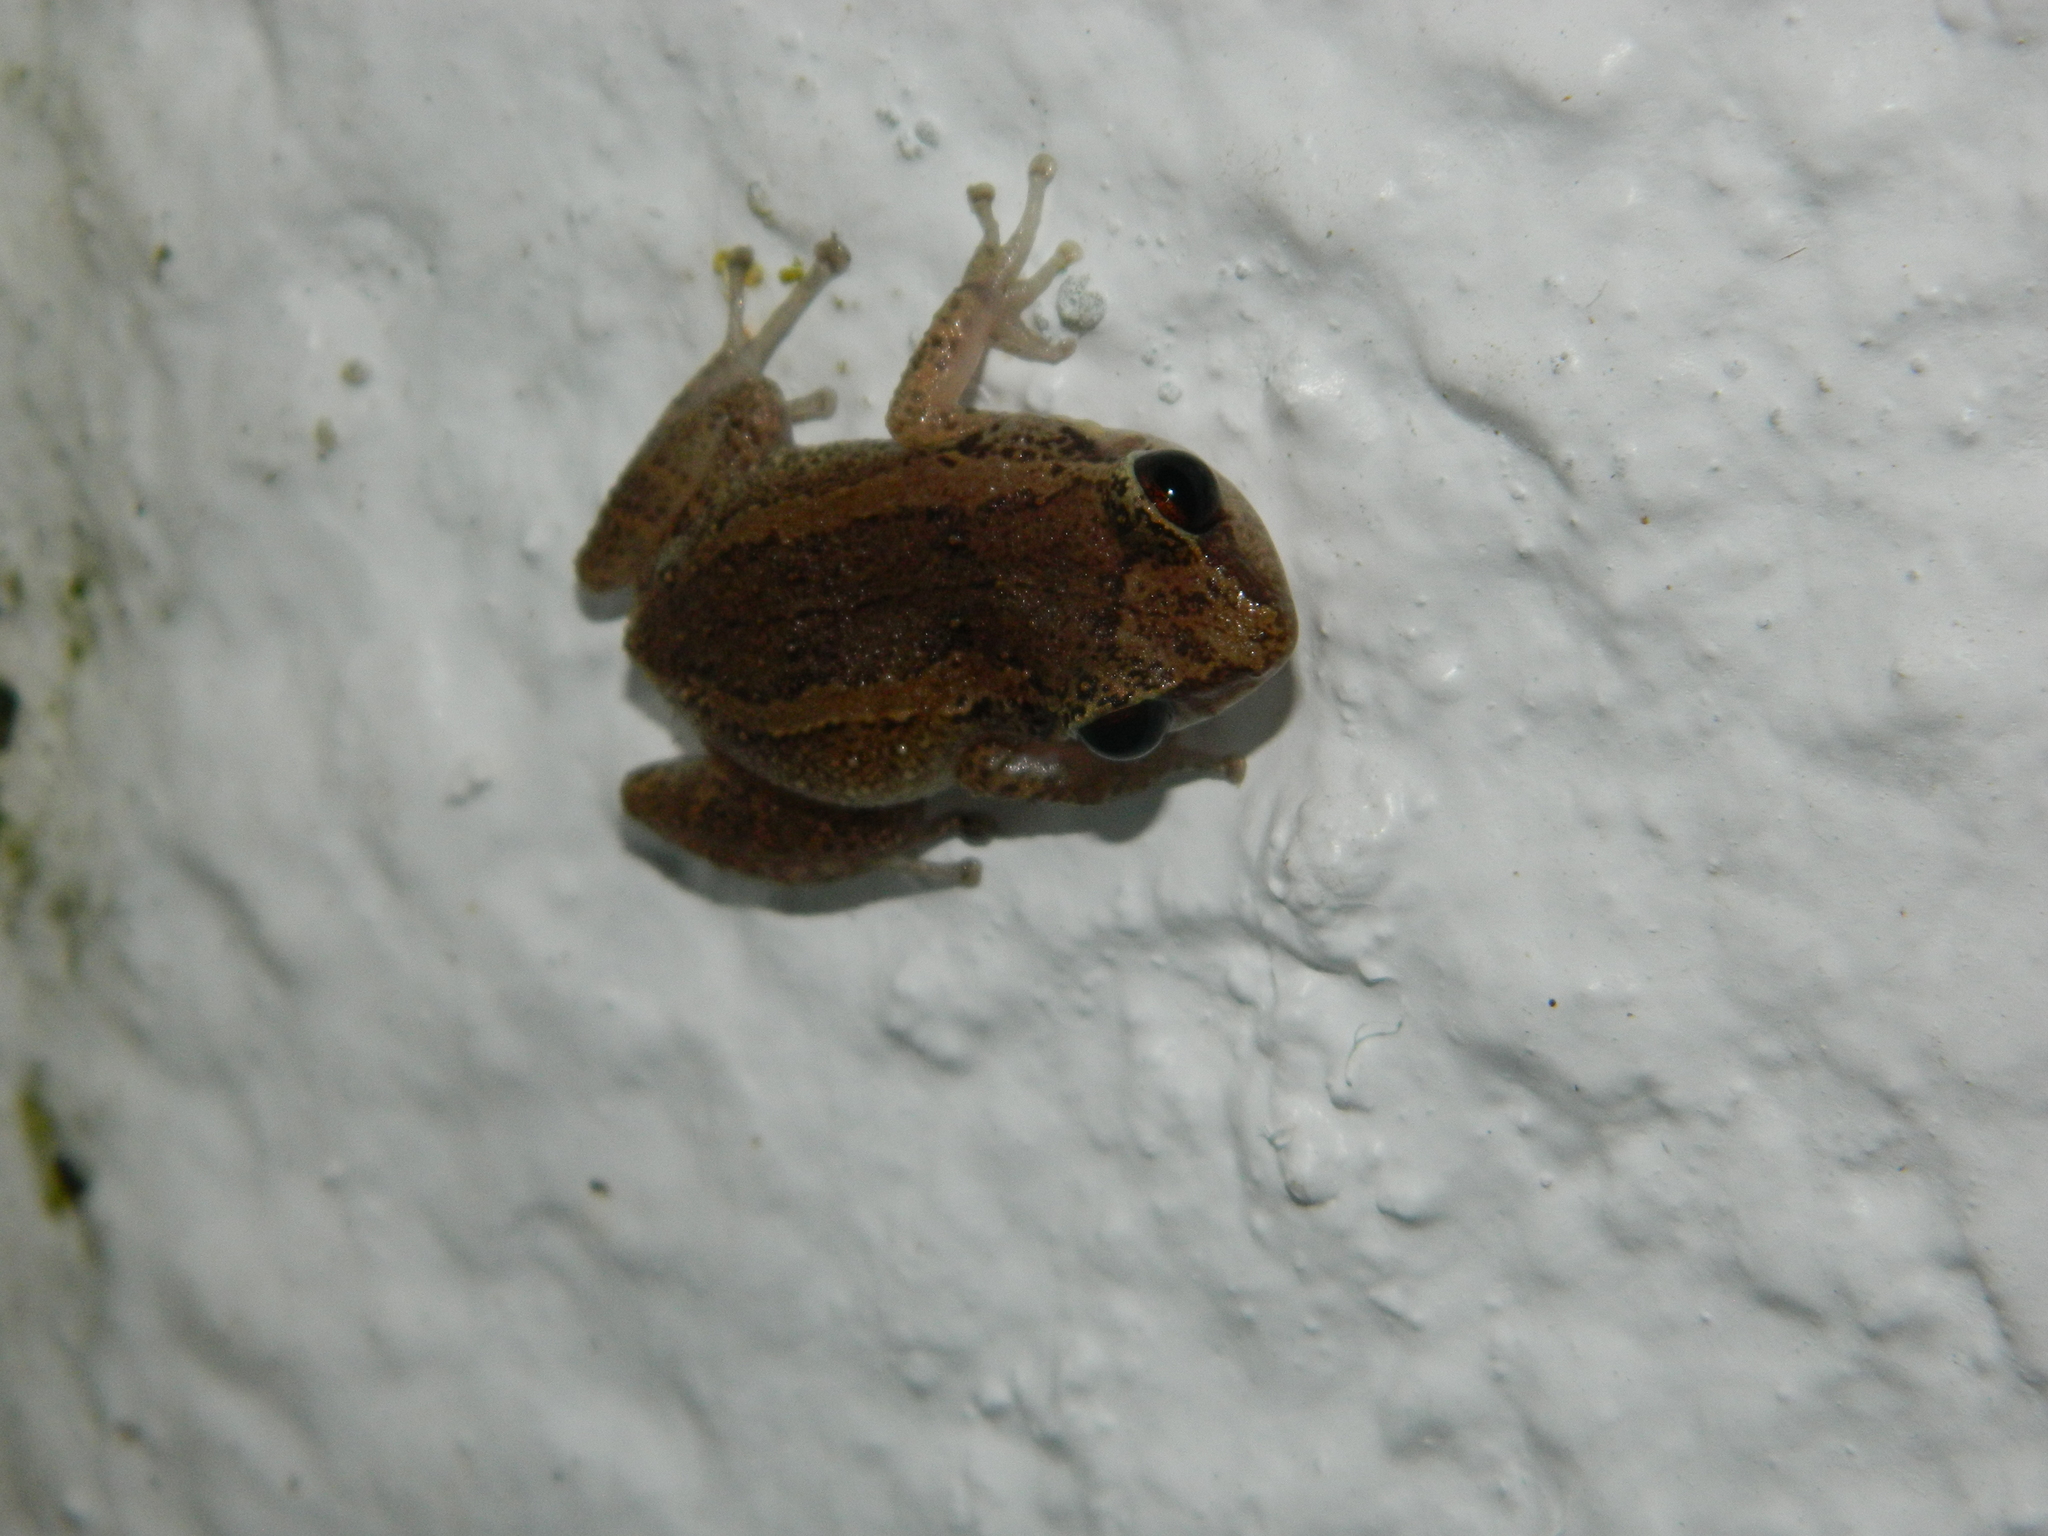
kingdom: Animalia
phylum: Chordata
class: Amphibia
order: Anura
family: Eleutherodactylidae
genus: Eleutherodactylus
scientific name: Eleutherodactylus johnstonei
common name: Johnstone's robber frog
